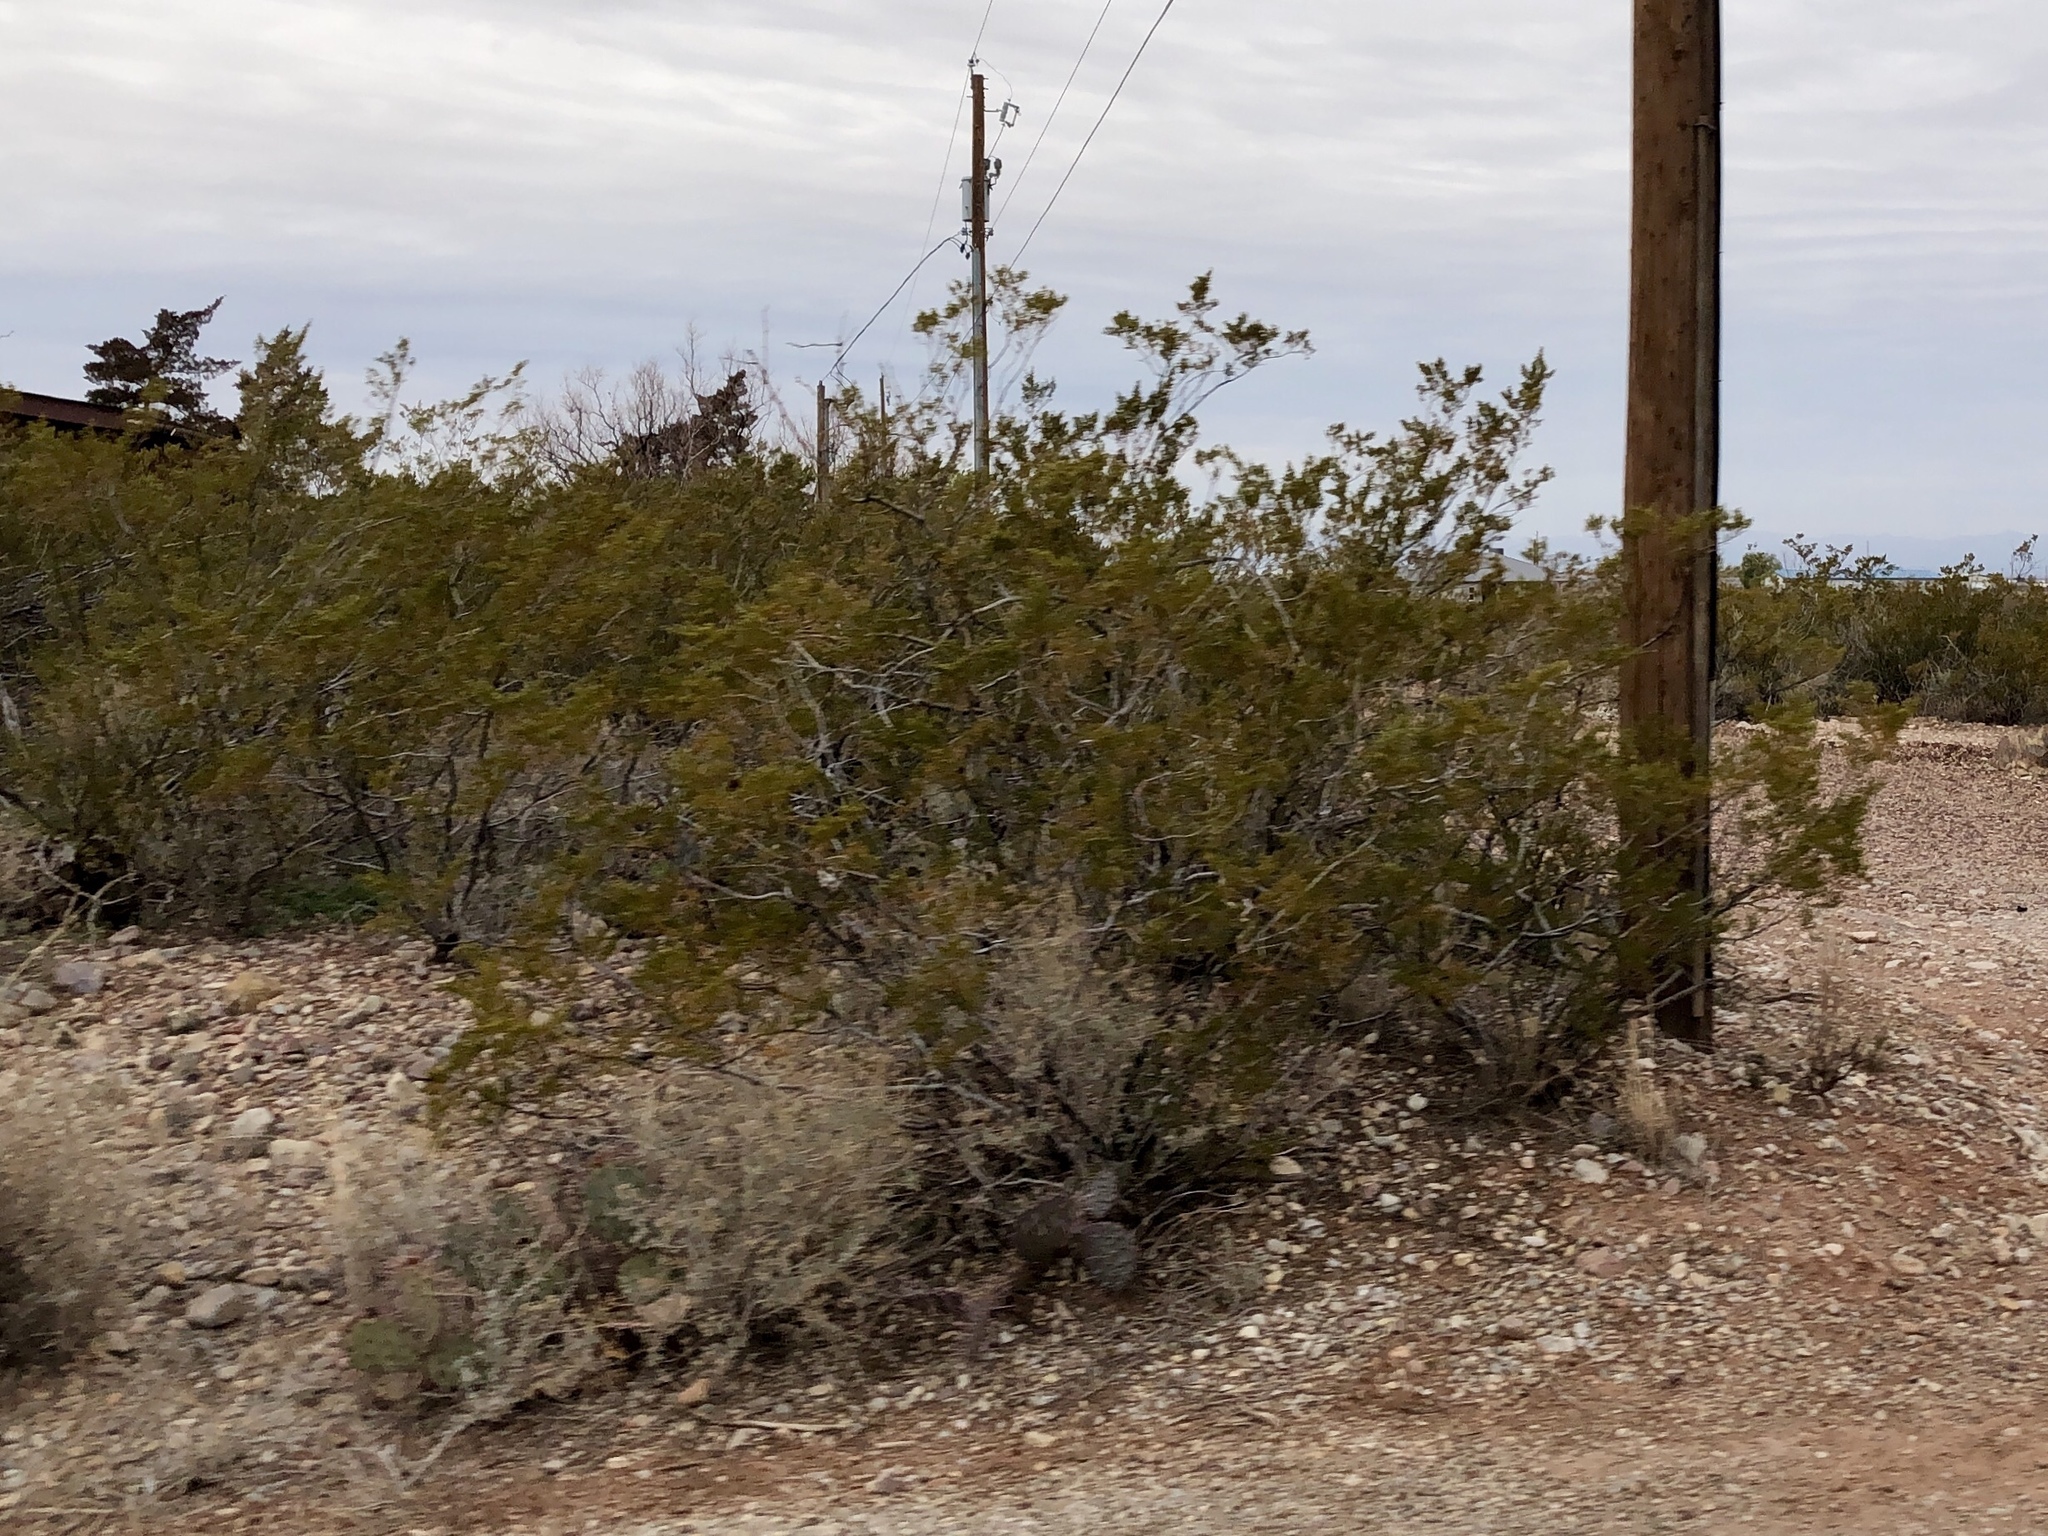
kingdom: Plantae
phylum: Tracheophyta
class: Magnoliopsida
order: Zygophyllales
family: Zygophyllaceae
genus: Larrea
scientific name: Larrea tridentata
